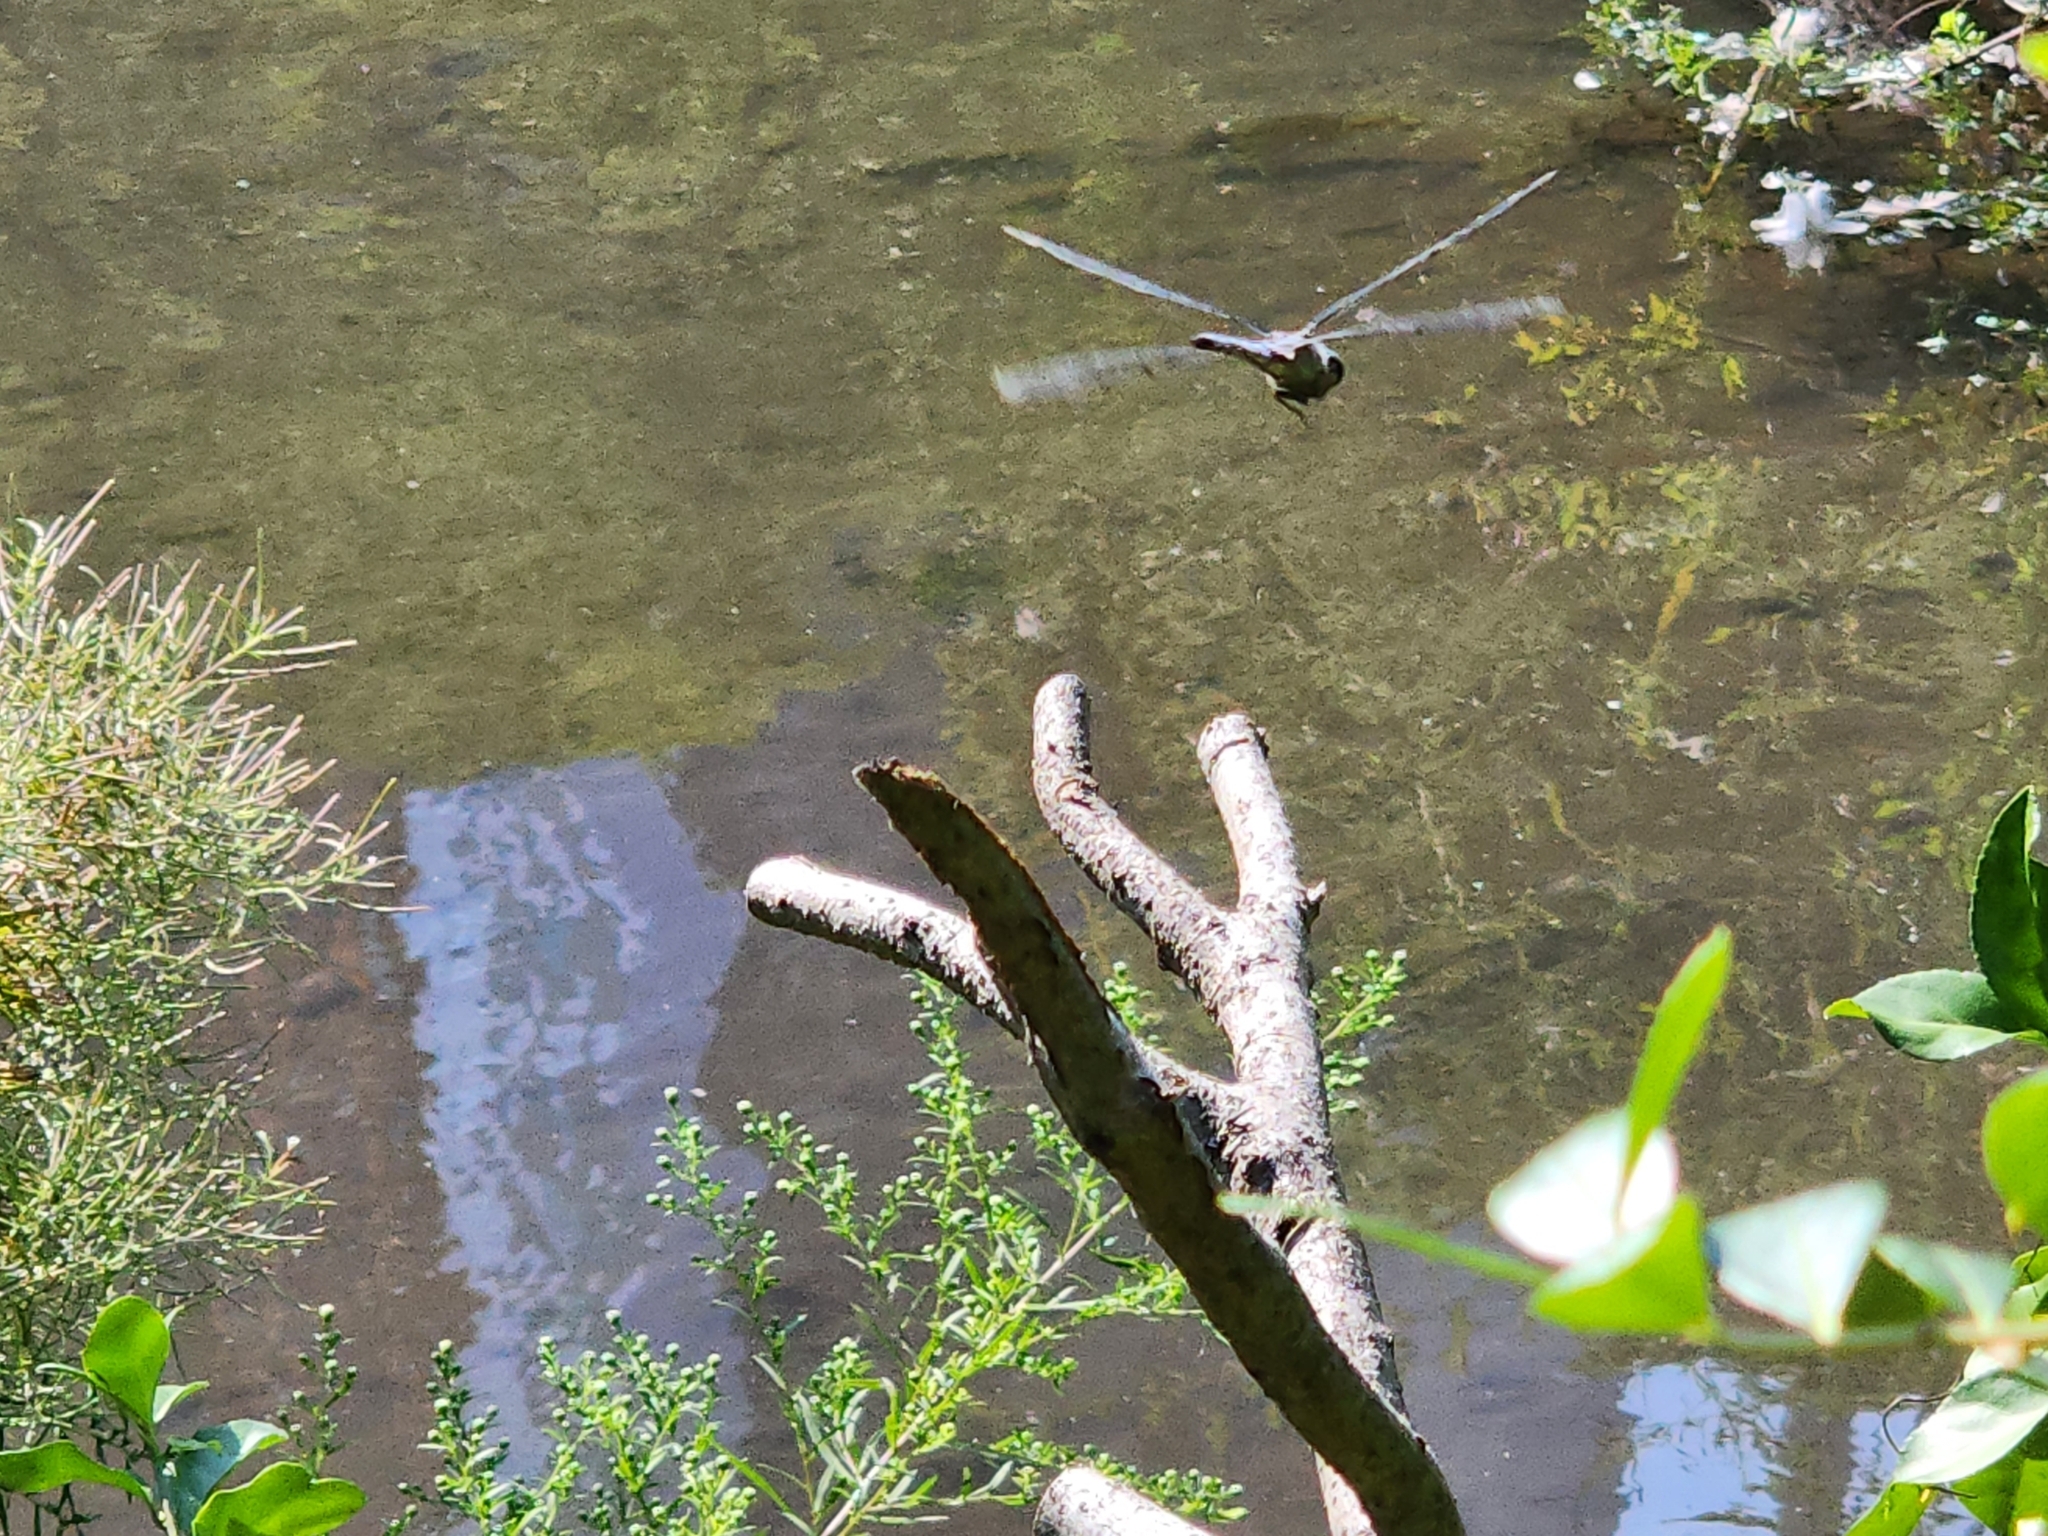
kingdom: Animalia
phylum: Arthropoda
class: Insecta
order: Odonata
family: Libellulidae
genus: Libellula
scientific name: Libellula vibrans
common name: Great blue skimmer
